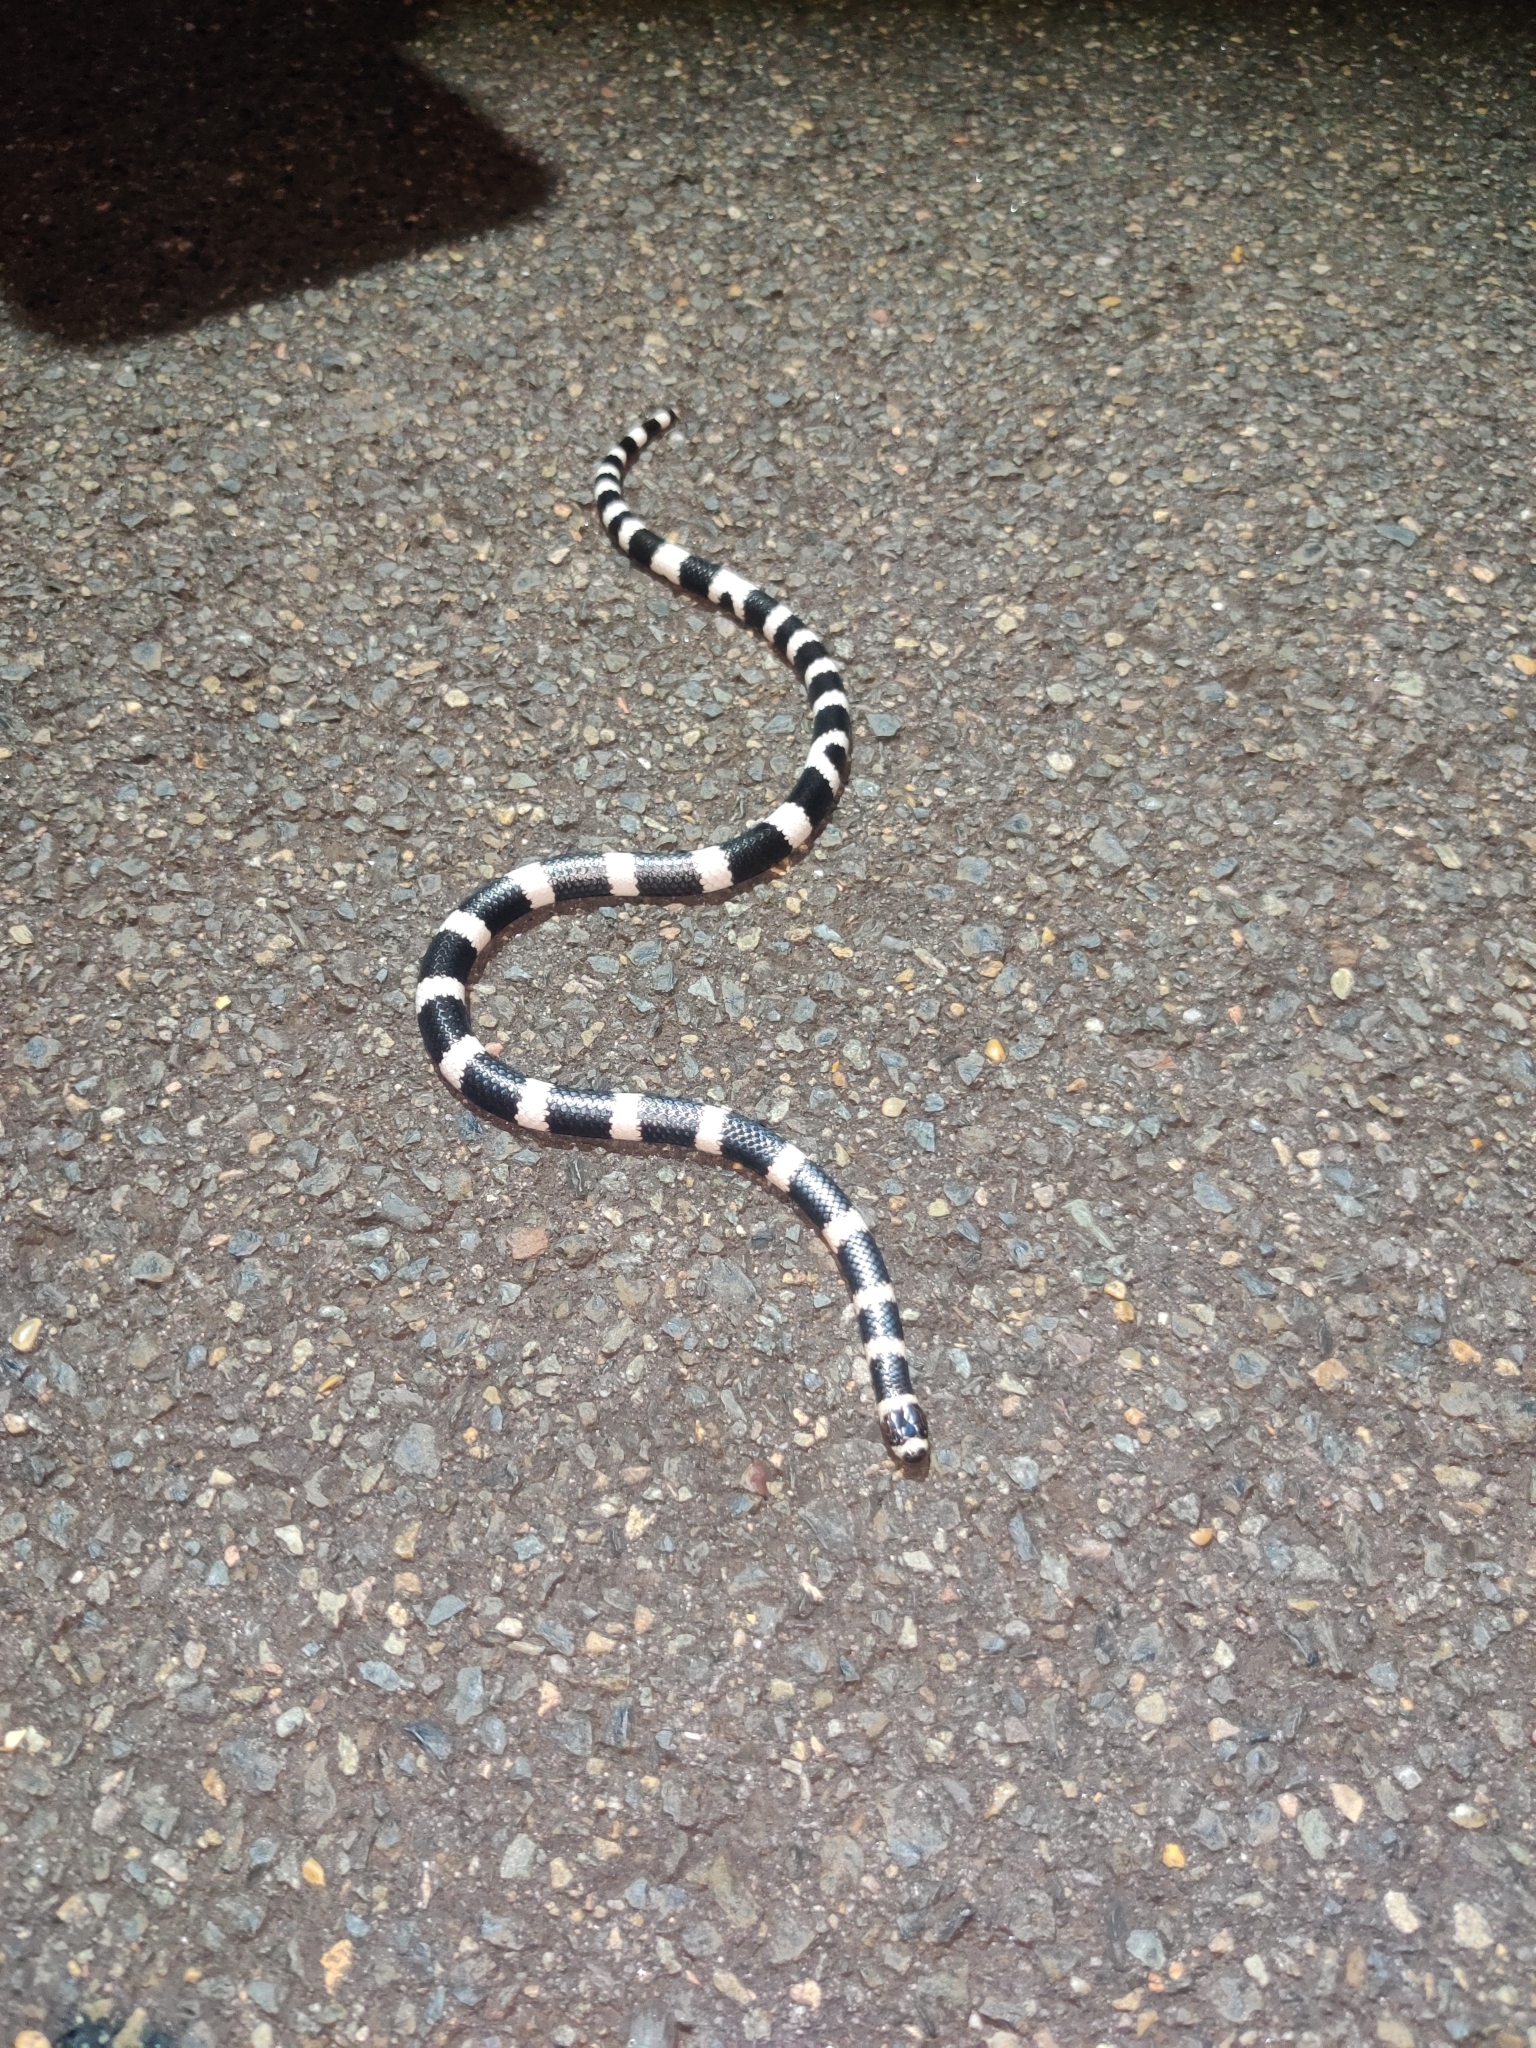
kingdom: Animalia
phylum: Chordata
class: Squamata
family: Elapidae
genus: Vermicella
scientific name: Vermicella annulata
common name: Bandy bandy
